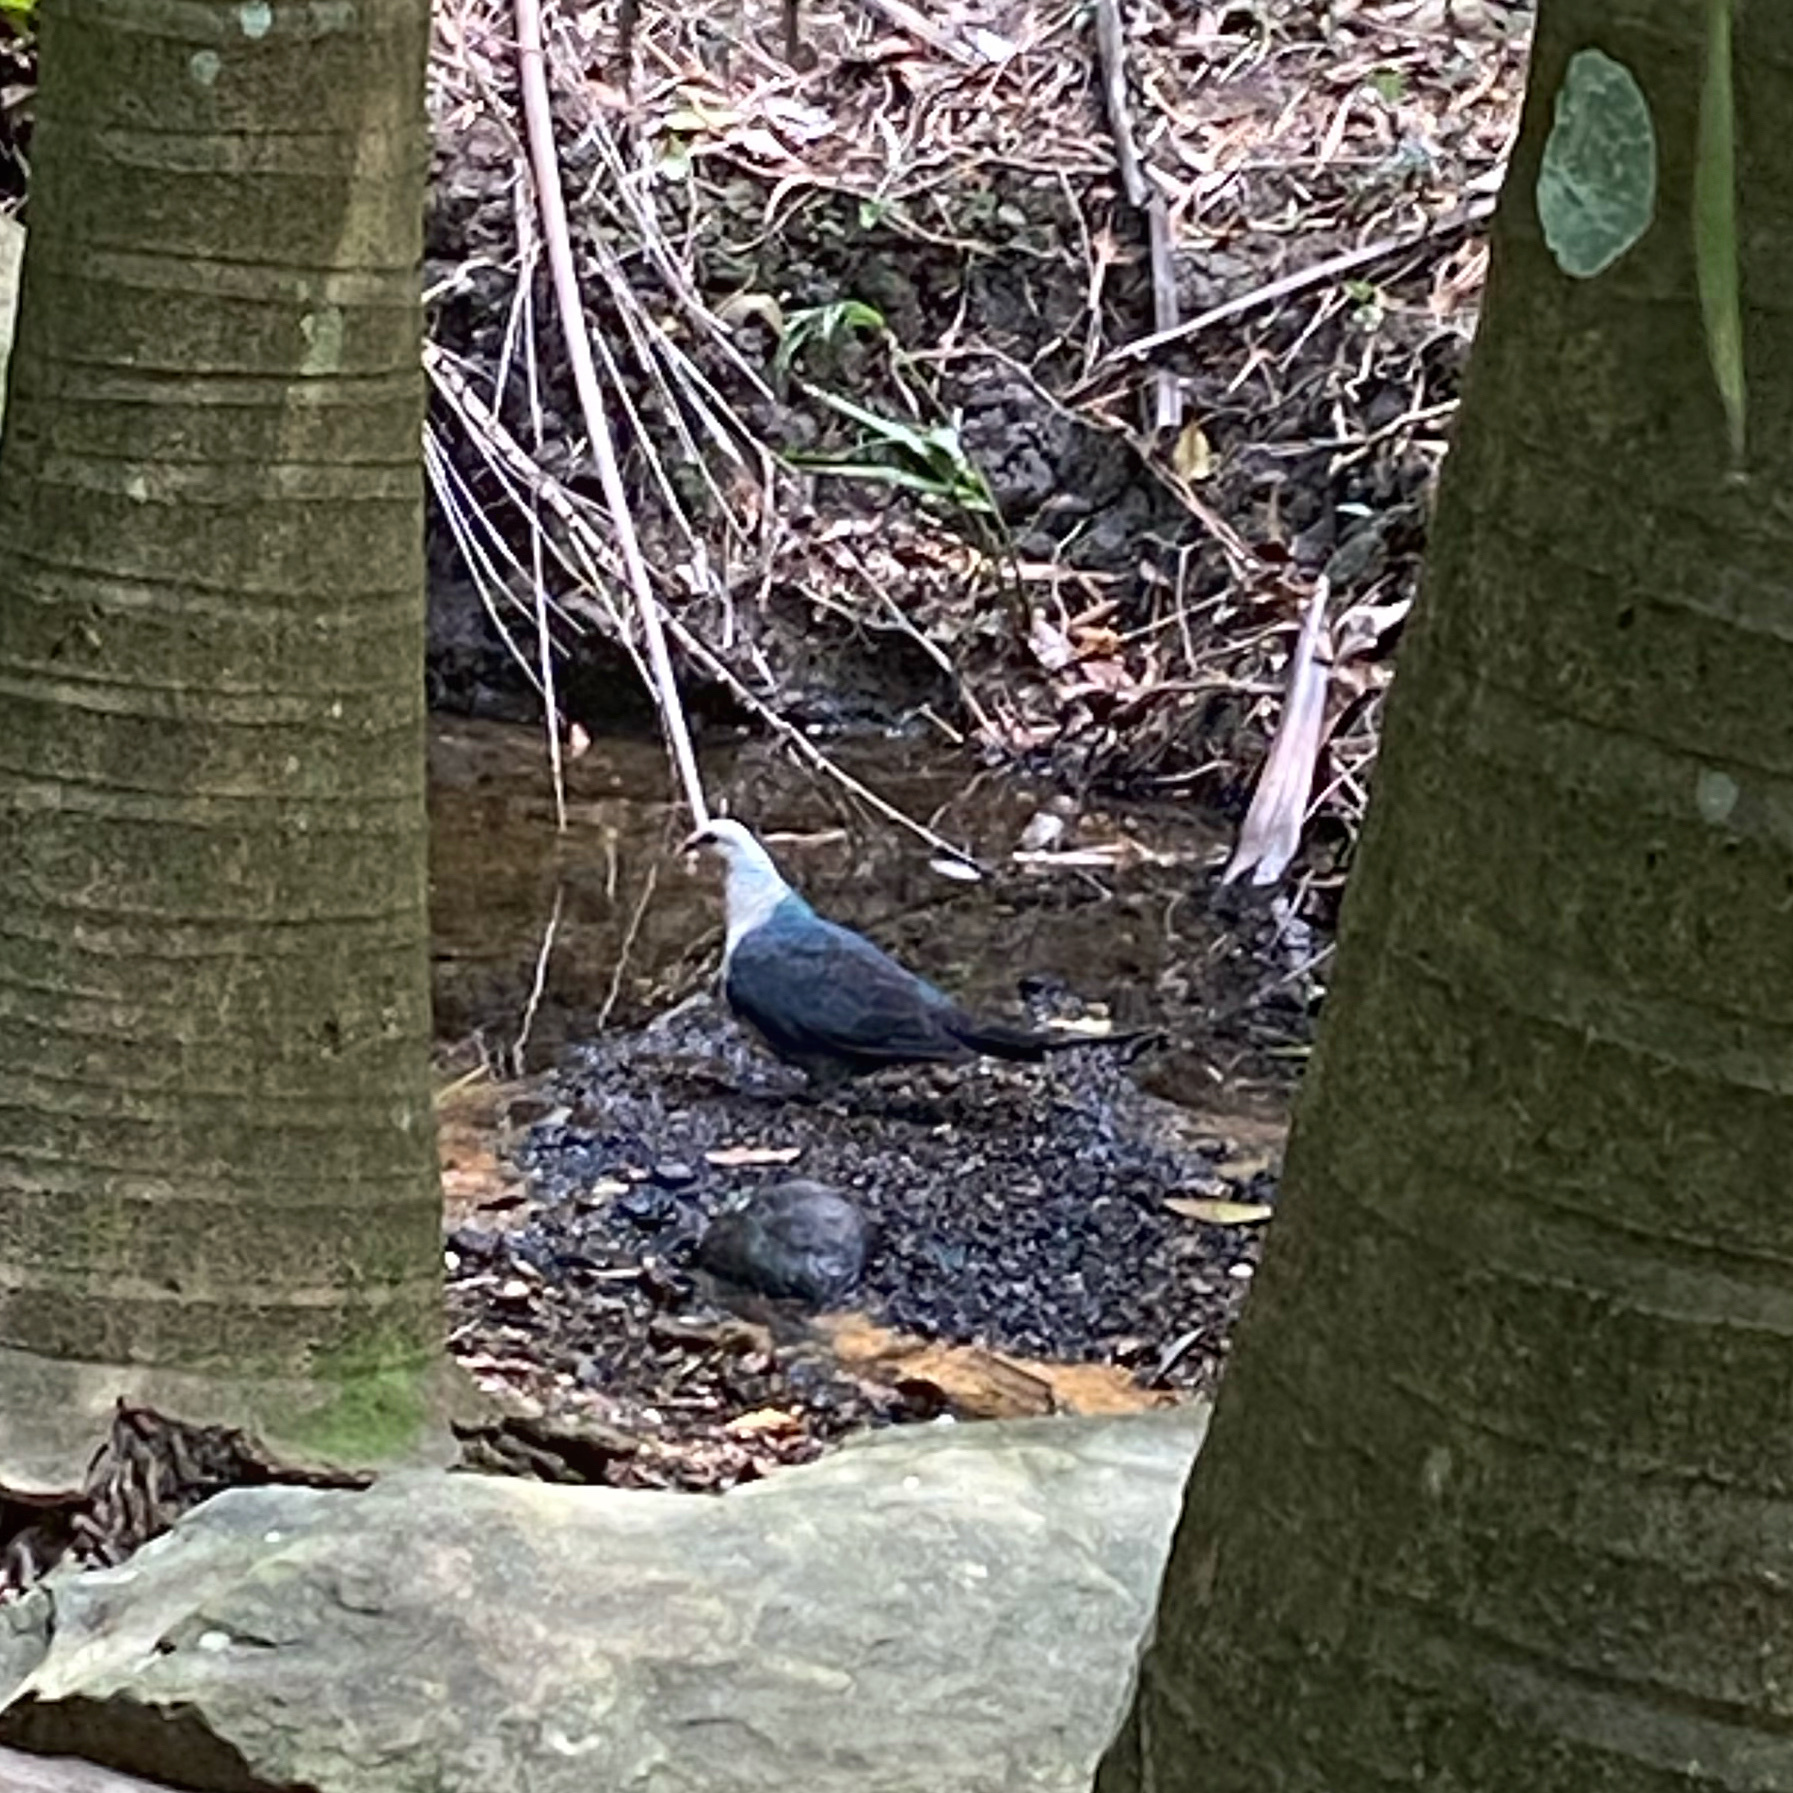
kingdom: Animalia
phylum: Chordata
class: Aves
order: Columbiformes
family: Columbidae
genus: Columba
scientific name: Columba leucomela
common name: White-headed pigeon
